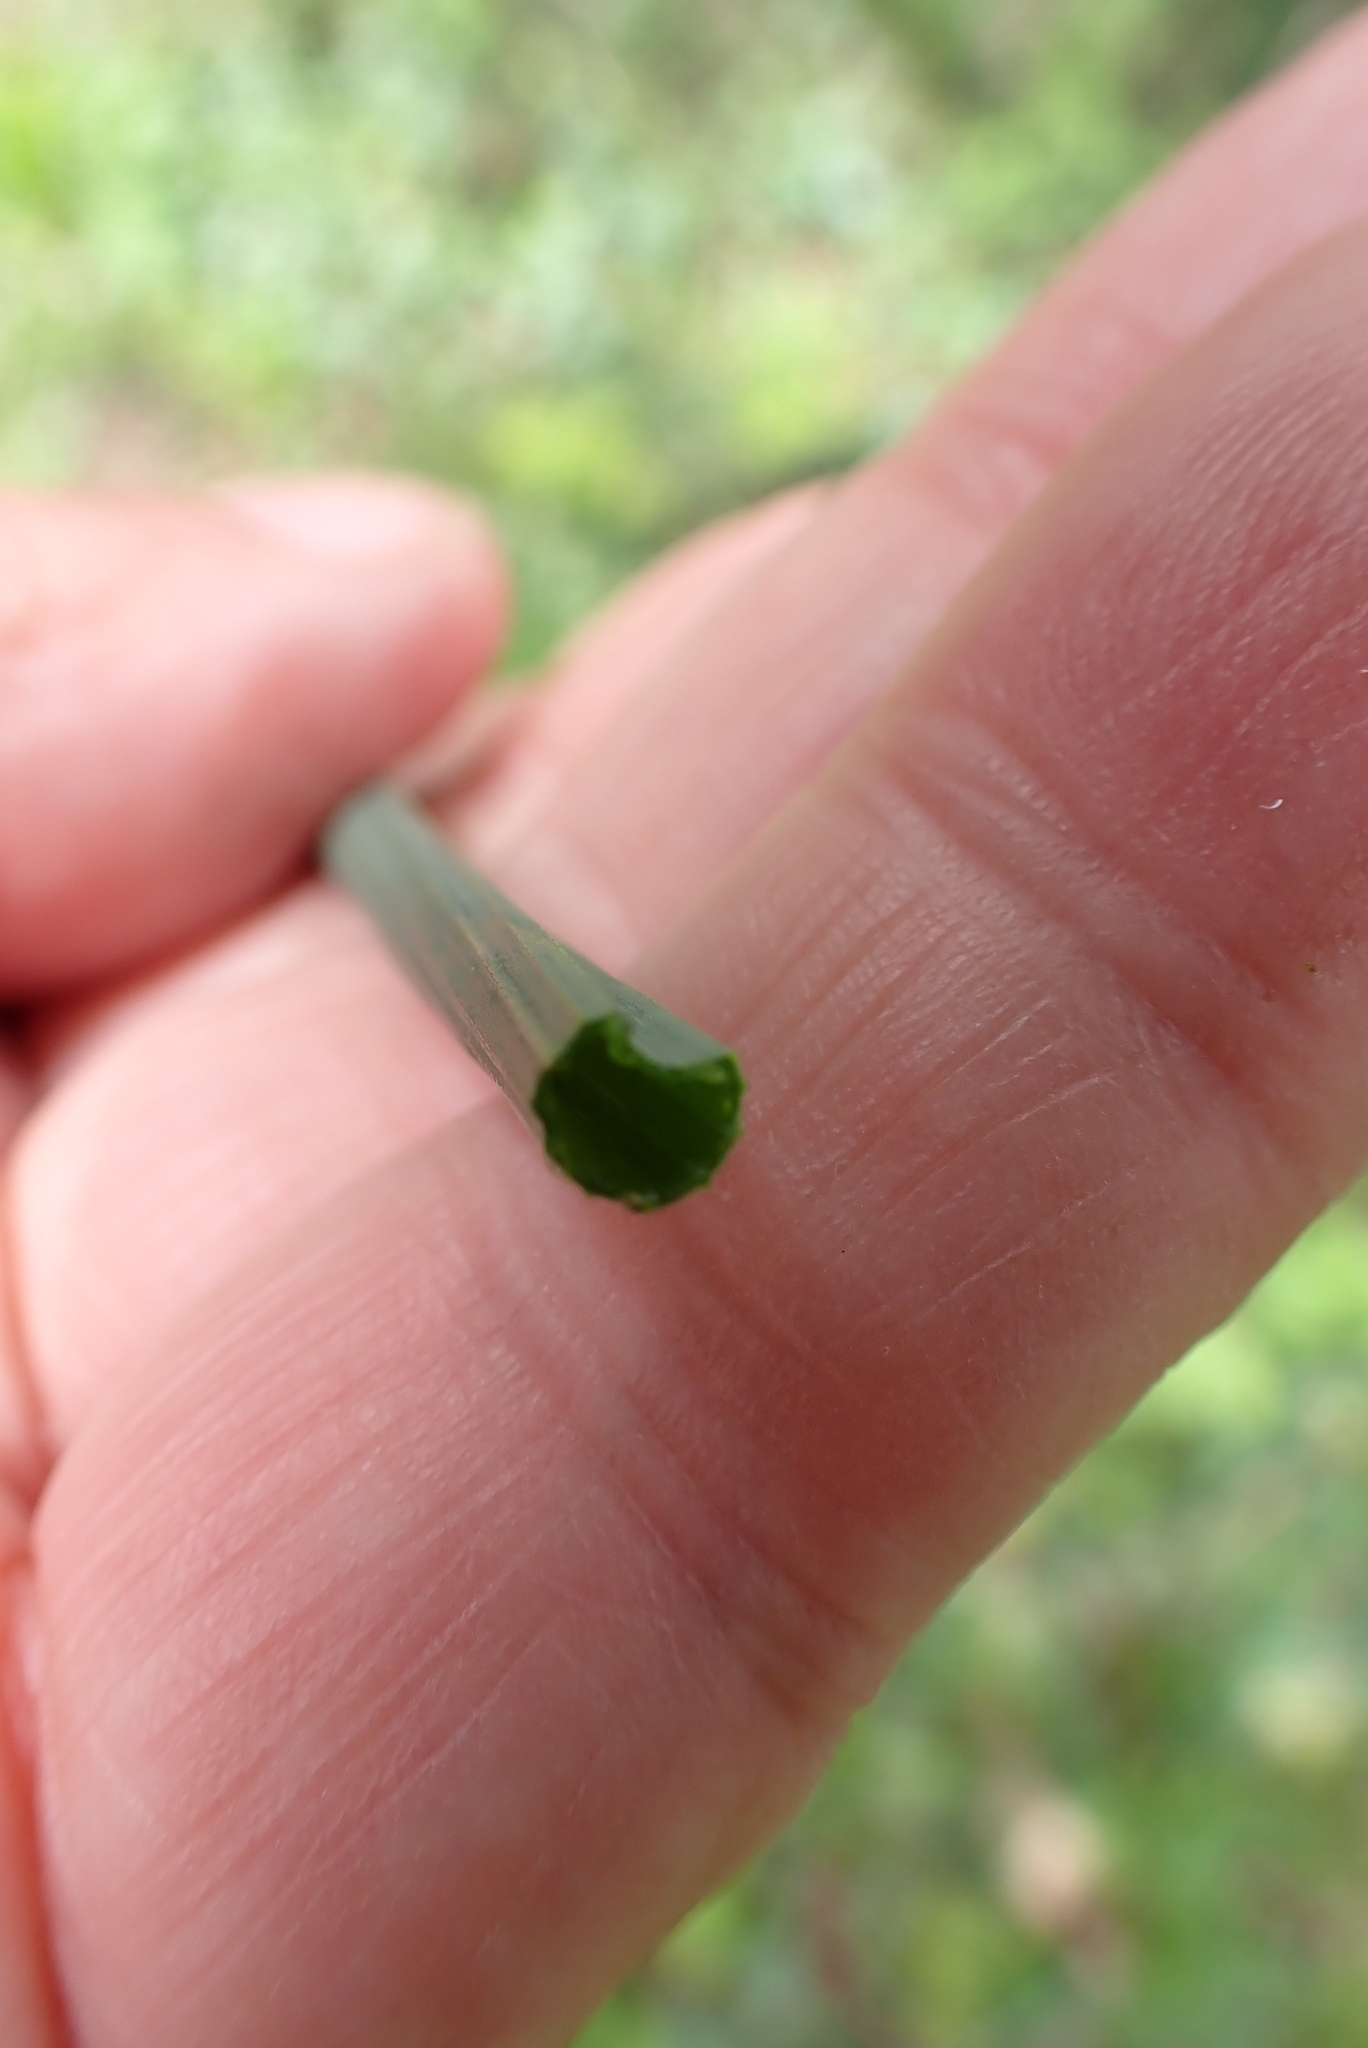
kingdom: Plantae
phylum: Tracheophyta
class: Liliopsida
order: Asparagales
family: Amaryllidaceae
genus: Allium
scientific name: Allium vineale
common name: Crow garlic
